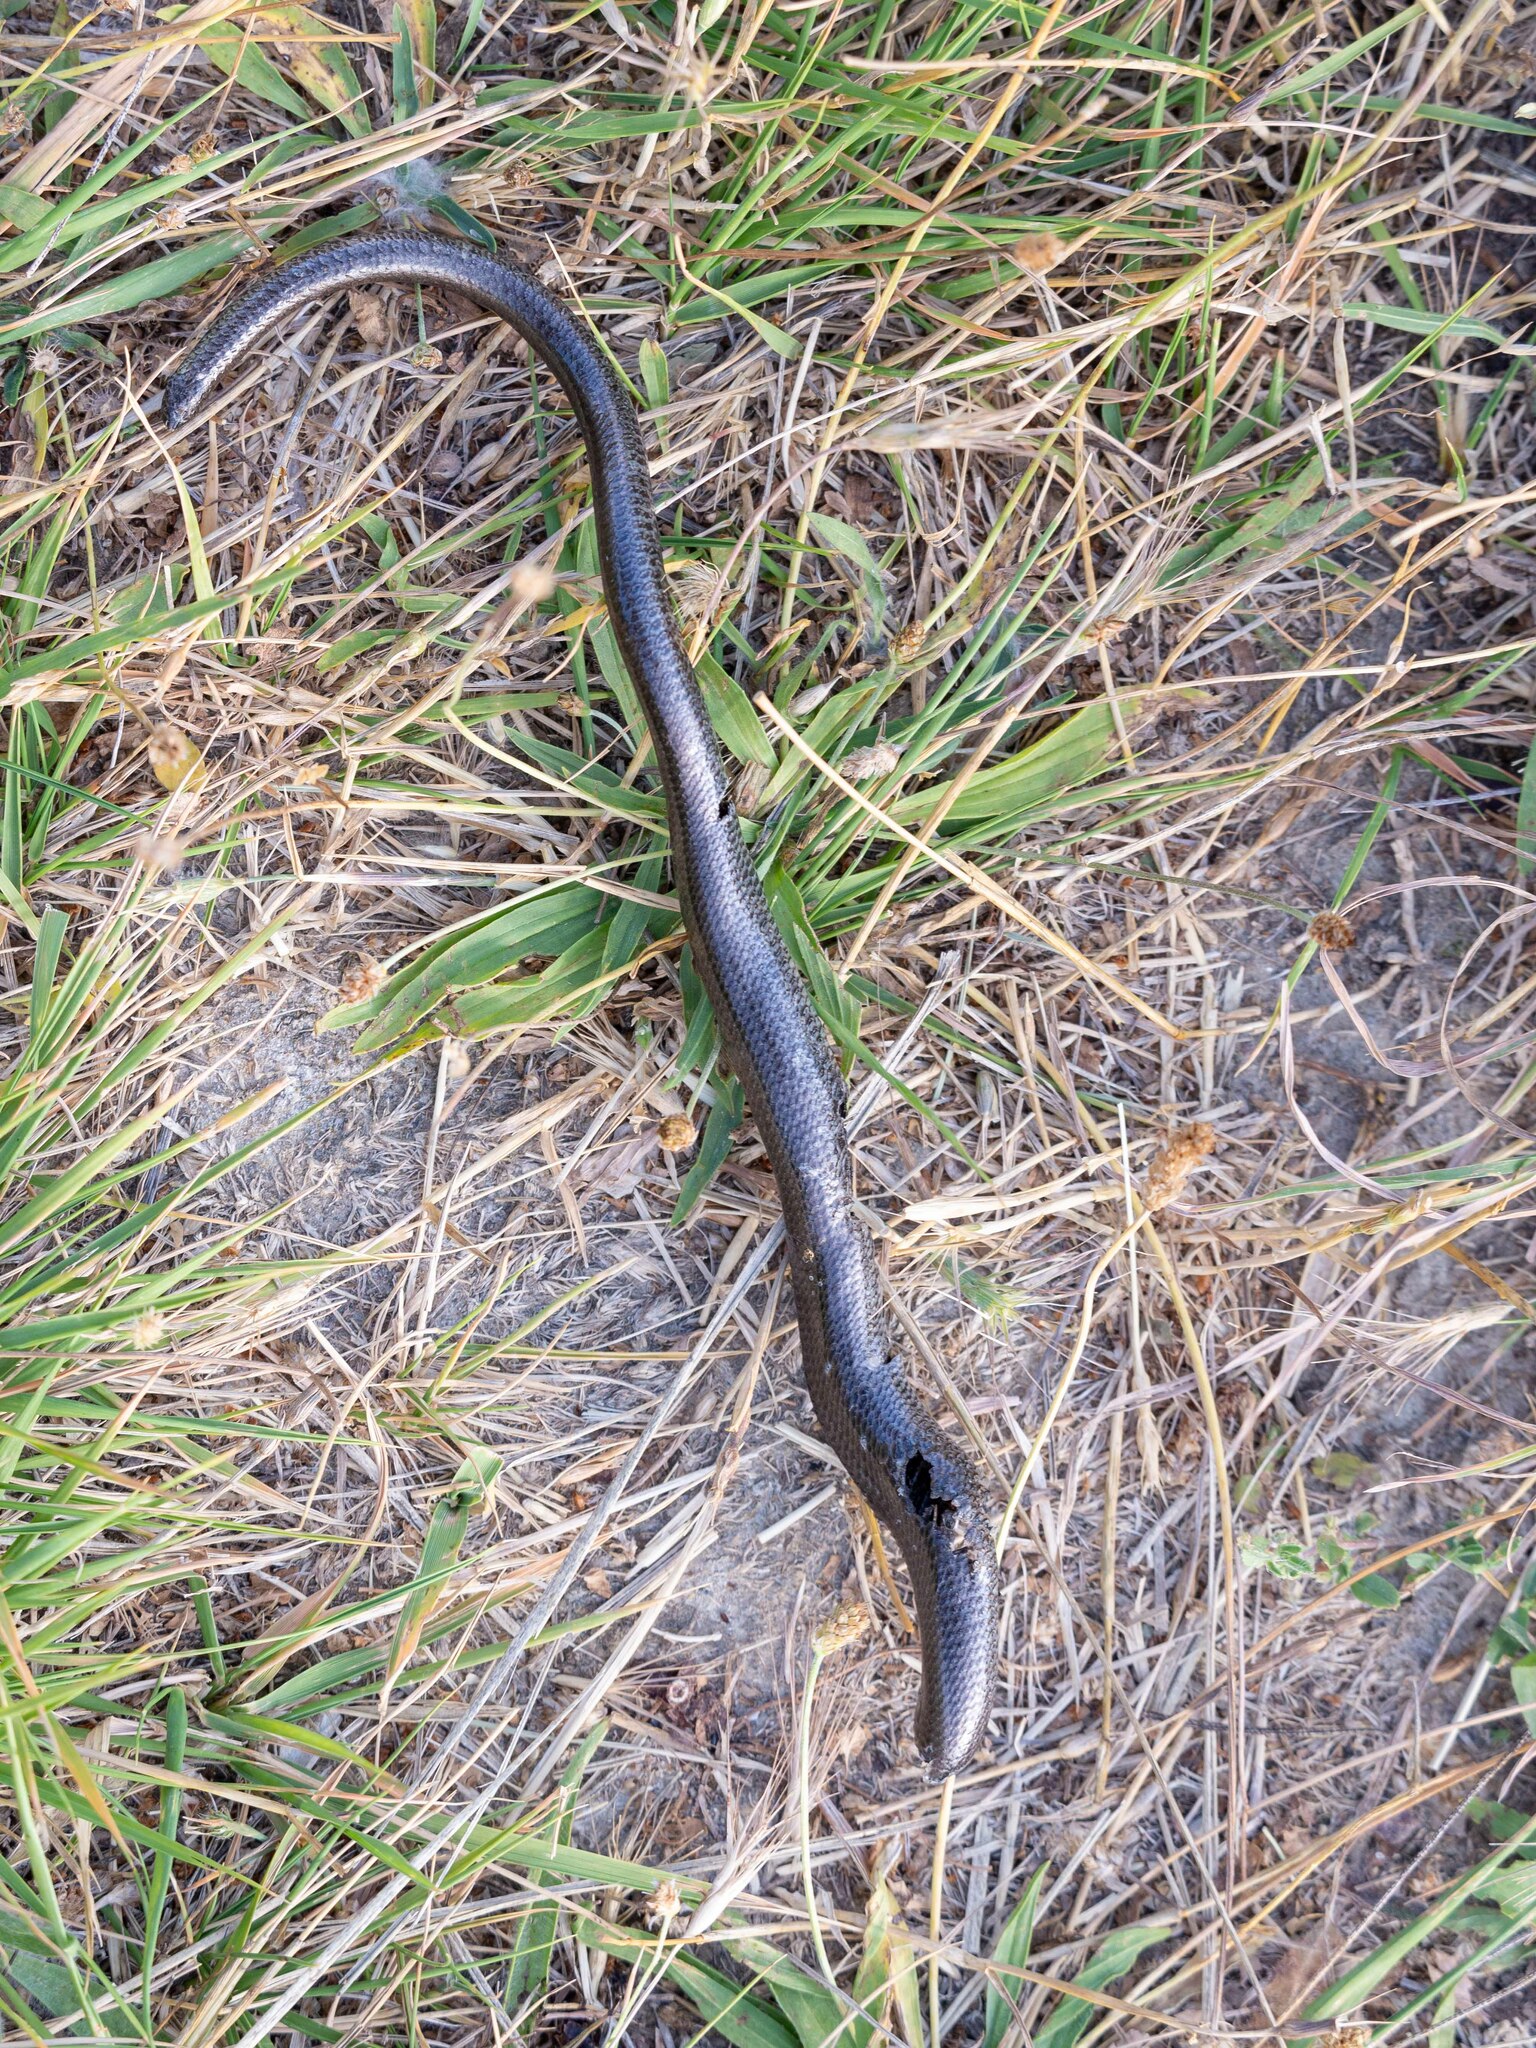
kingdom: Animalia
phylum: Chordata
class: Squamata
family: Anguidae
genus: Anguis
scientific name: Anguis fragilis
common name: Slow worm
